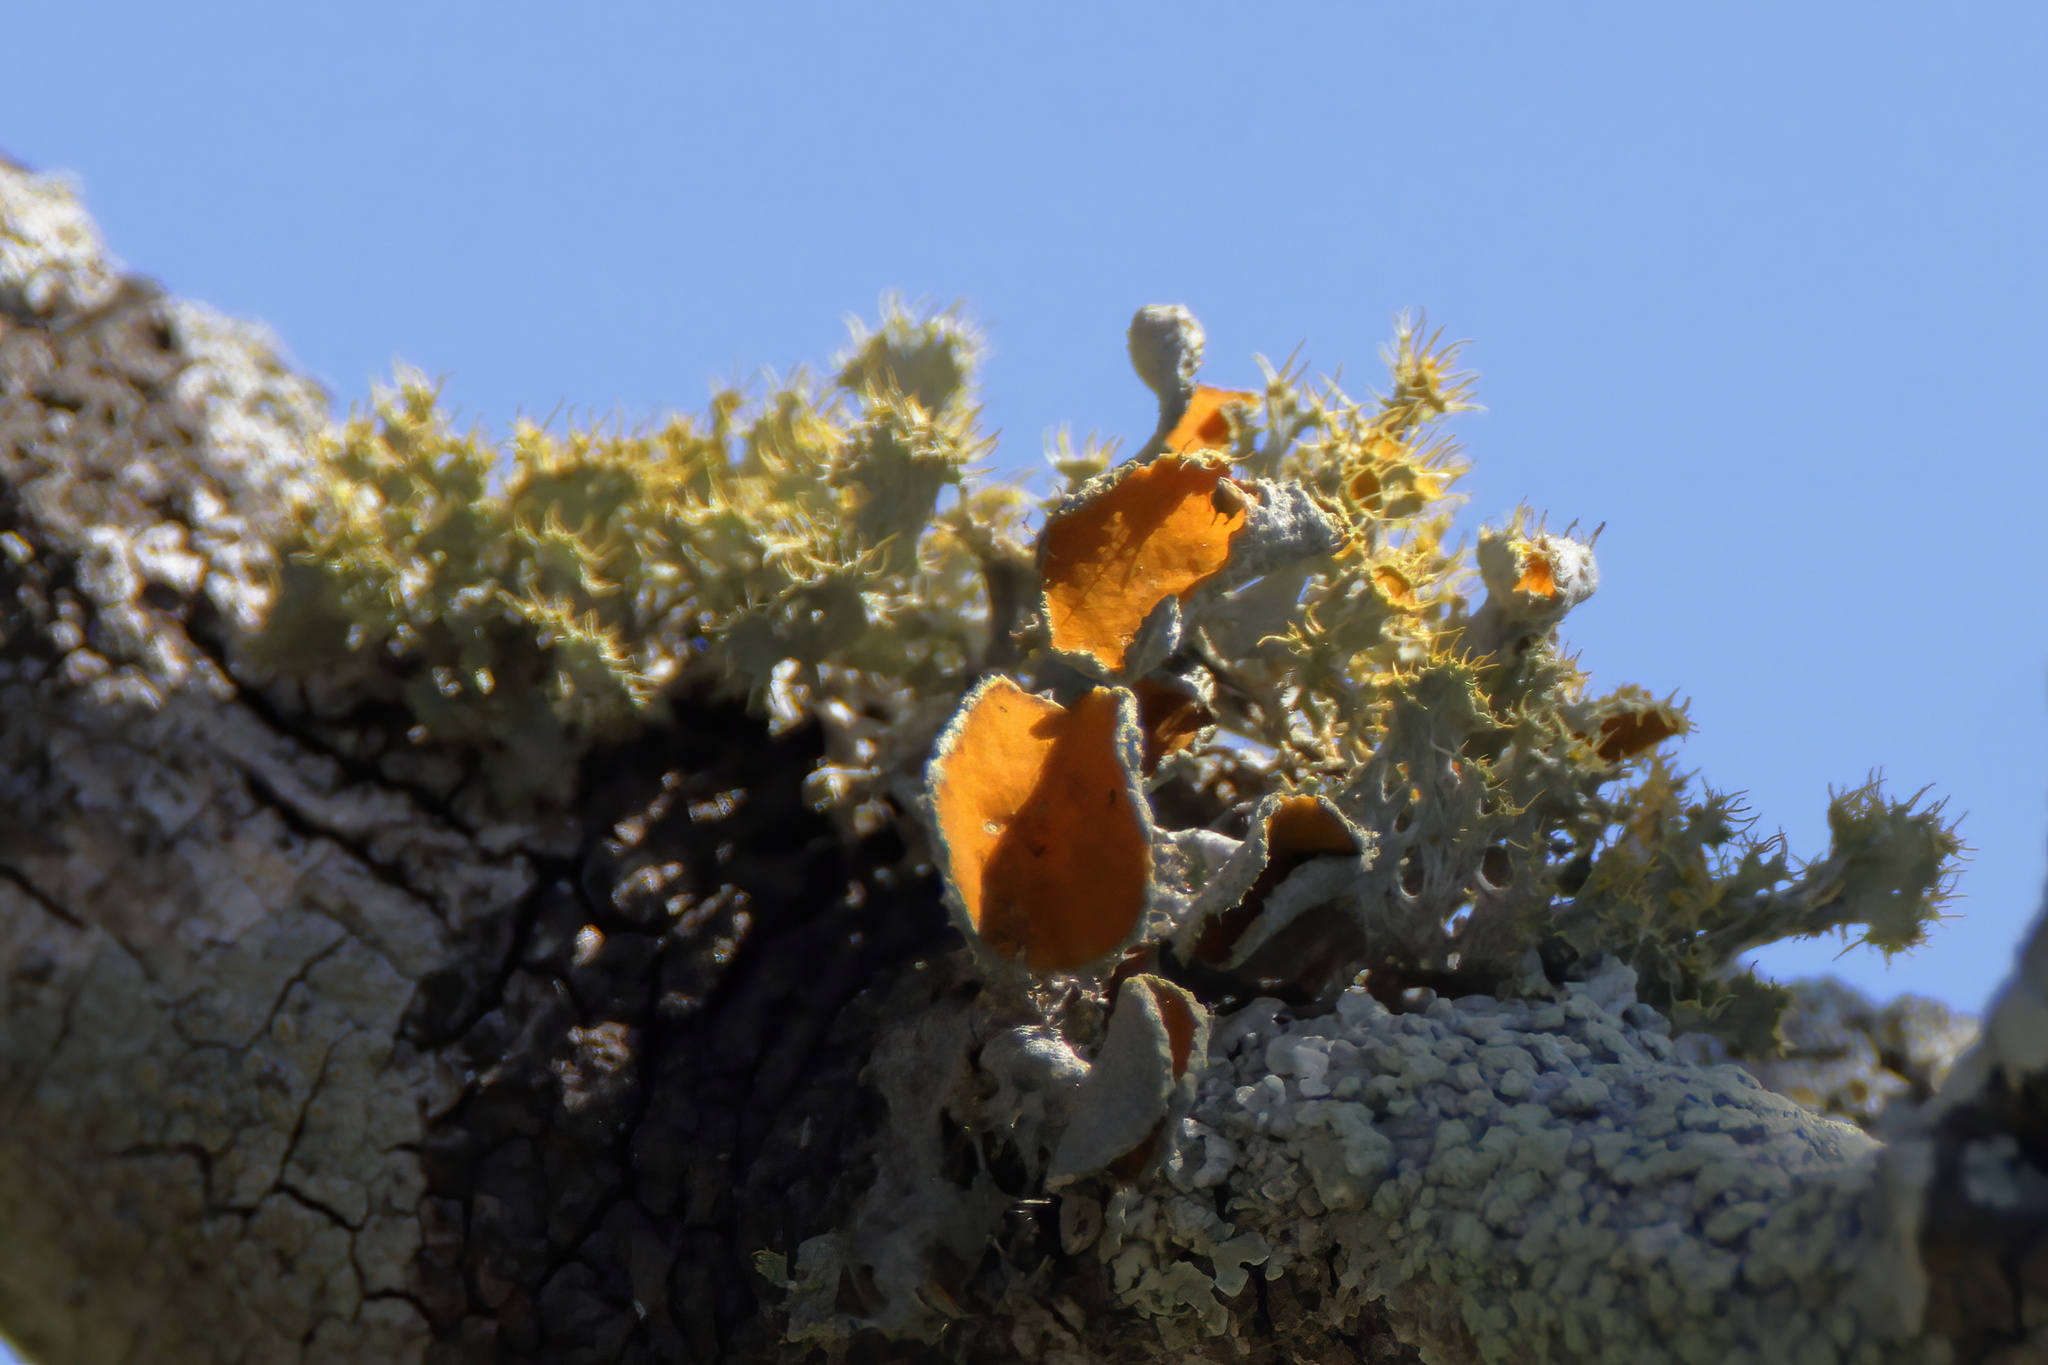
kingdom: Fungi
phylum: Ascomycota
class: Lecanoromycetes
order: Teloschistales
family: Teloschistaceae
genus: Niorma
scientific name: Niorma chrysophthalma
